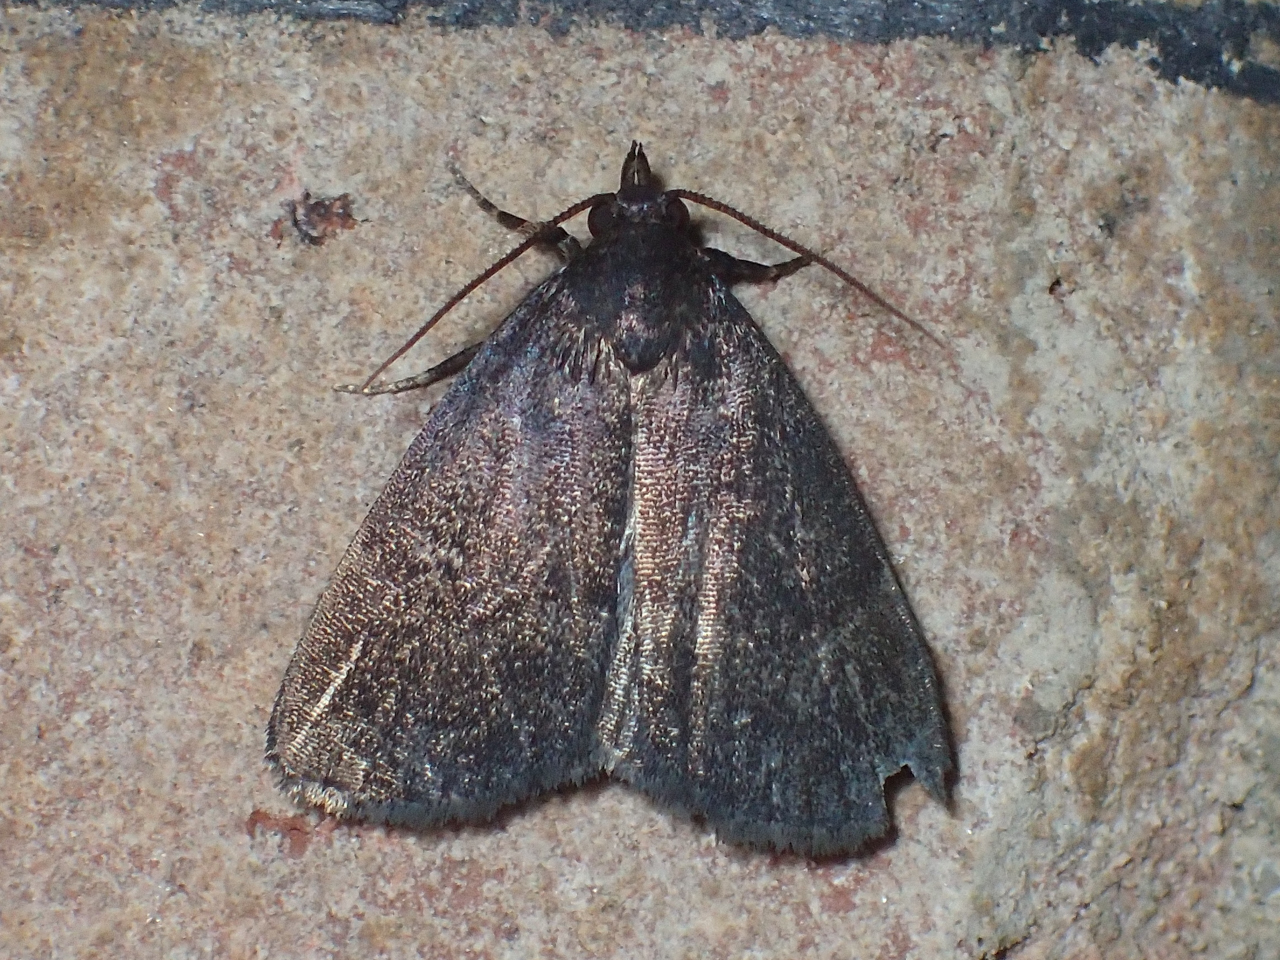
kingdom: Animalia
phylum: Arthropoda
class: Insecta
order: Lepidoptera
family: Erebidae
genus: Idia
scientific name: Idia rotundalis
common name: Rotund idia moth
